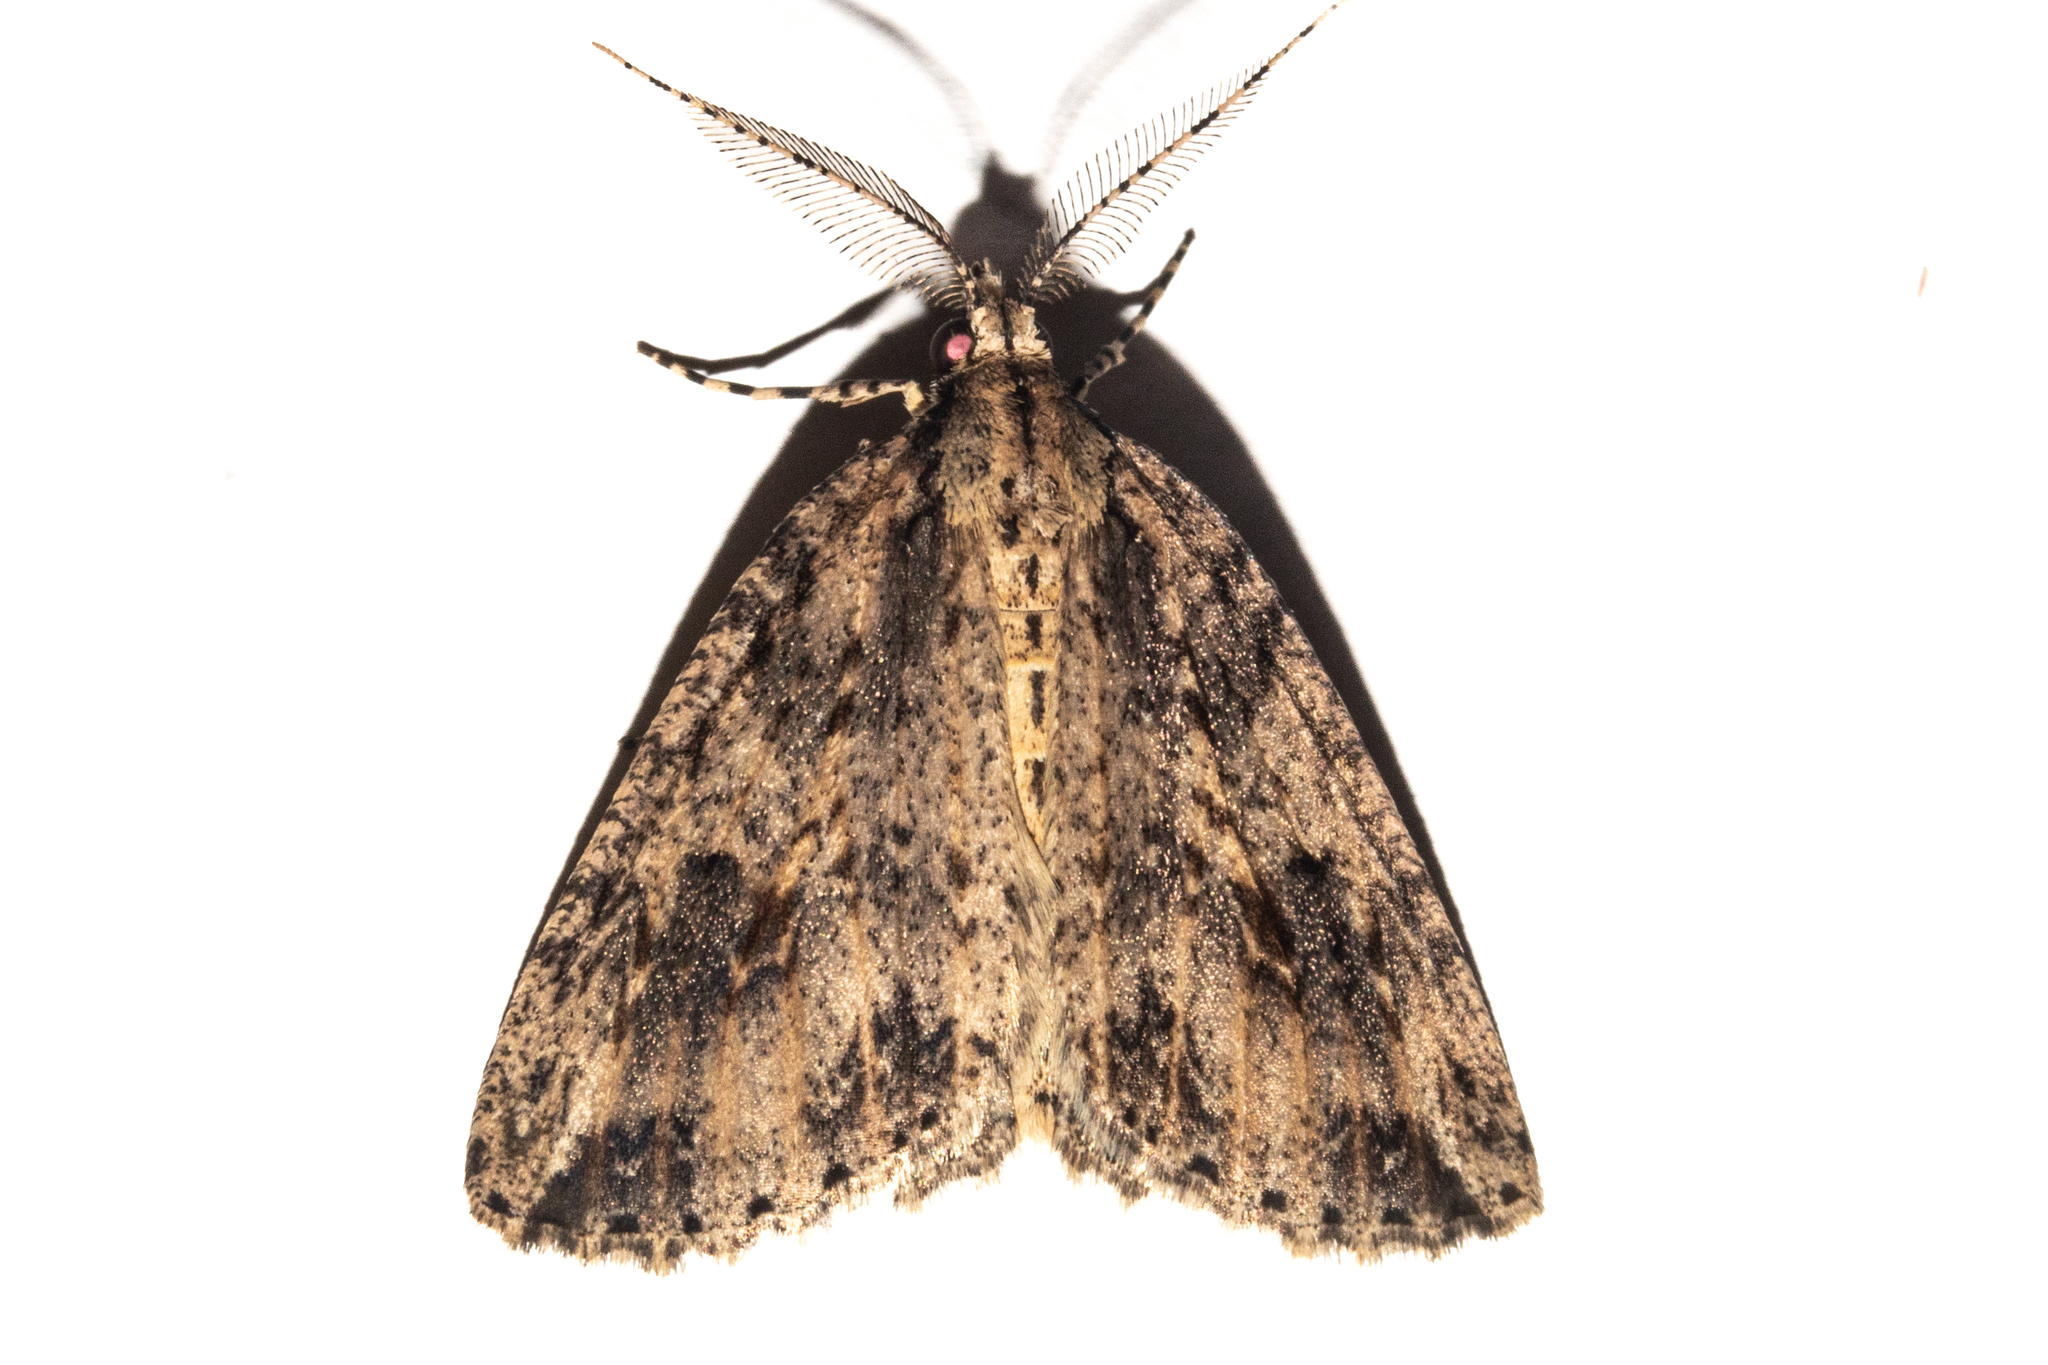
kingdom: Animalia
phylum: Arthropoda
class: Insecta
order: Lepidoptera
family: Geometridae
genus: Pseudocoremia
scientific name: Pseudocoremia rudisata
